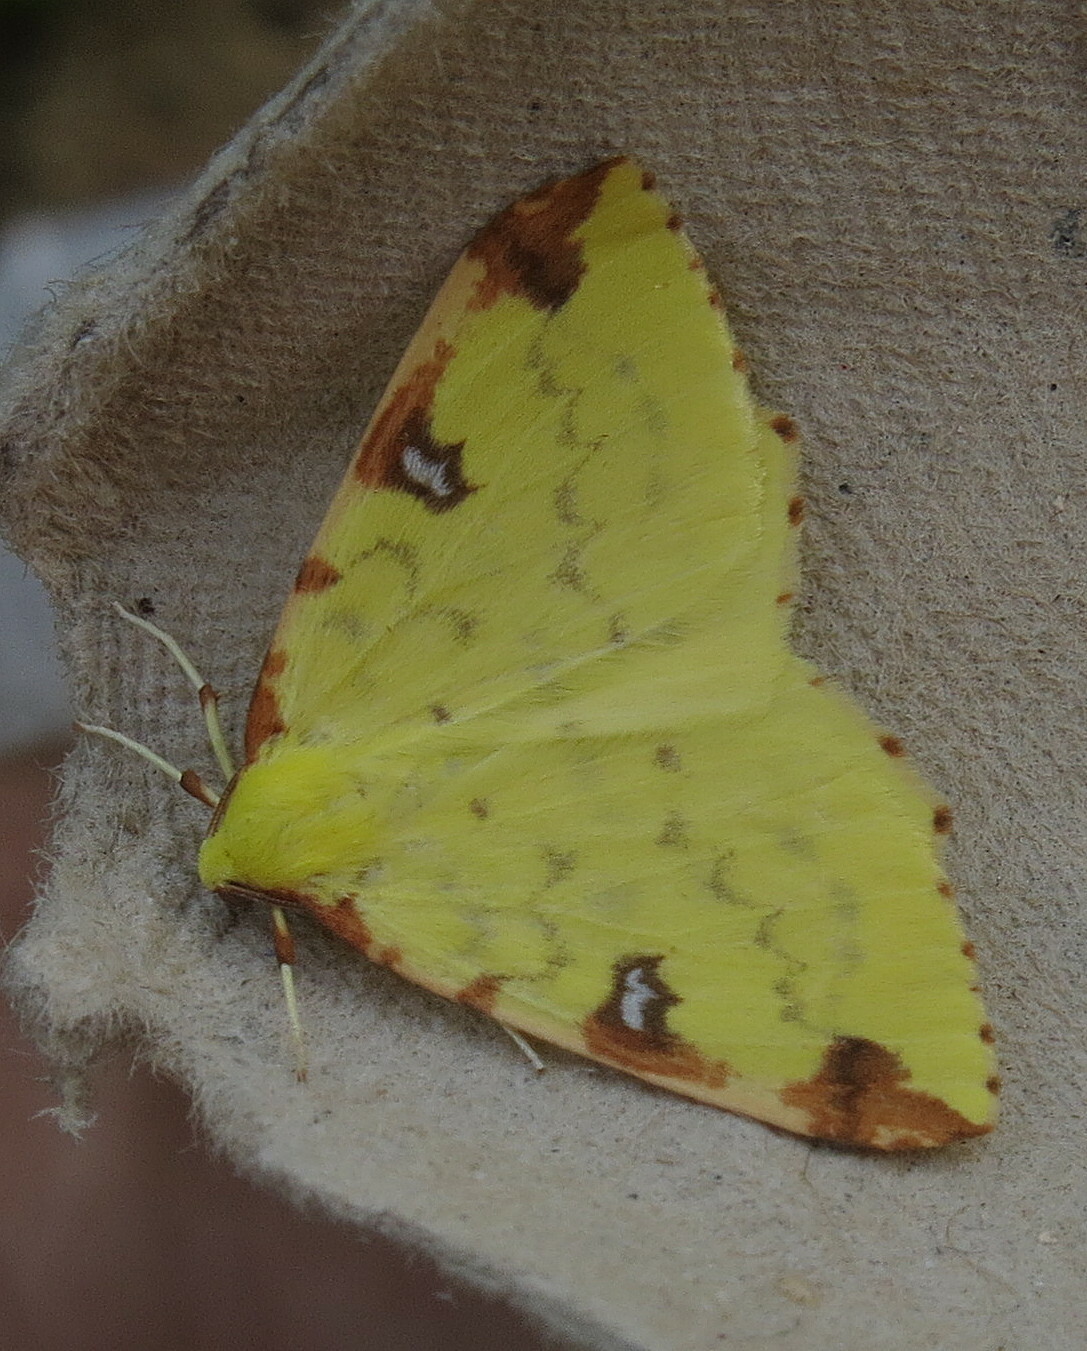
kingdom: Animalia
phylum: Arthropoda
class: Insecta
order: Lepidoptera
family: Geometridae
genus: Opisthograptis
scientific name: Opisthograptis luteolata
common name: Brimstone moth
